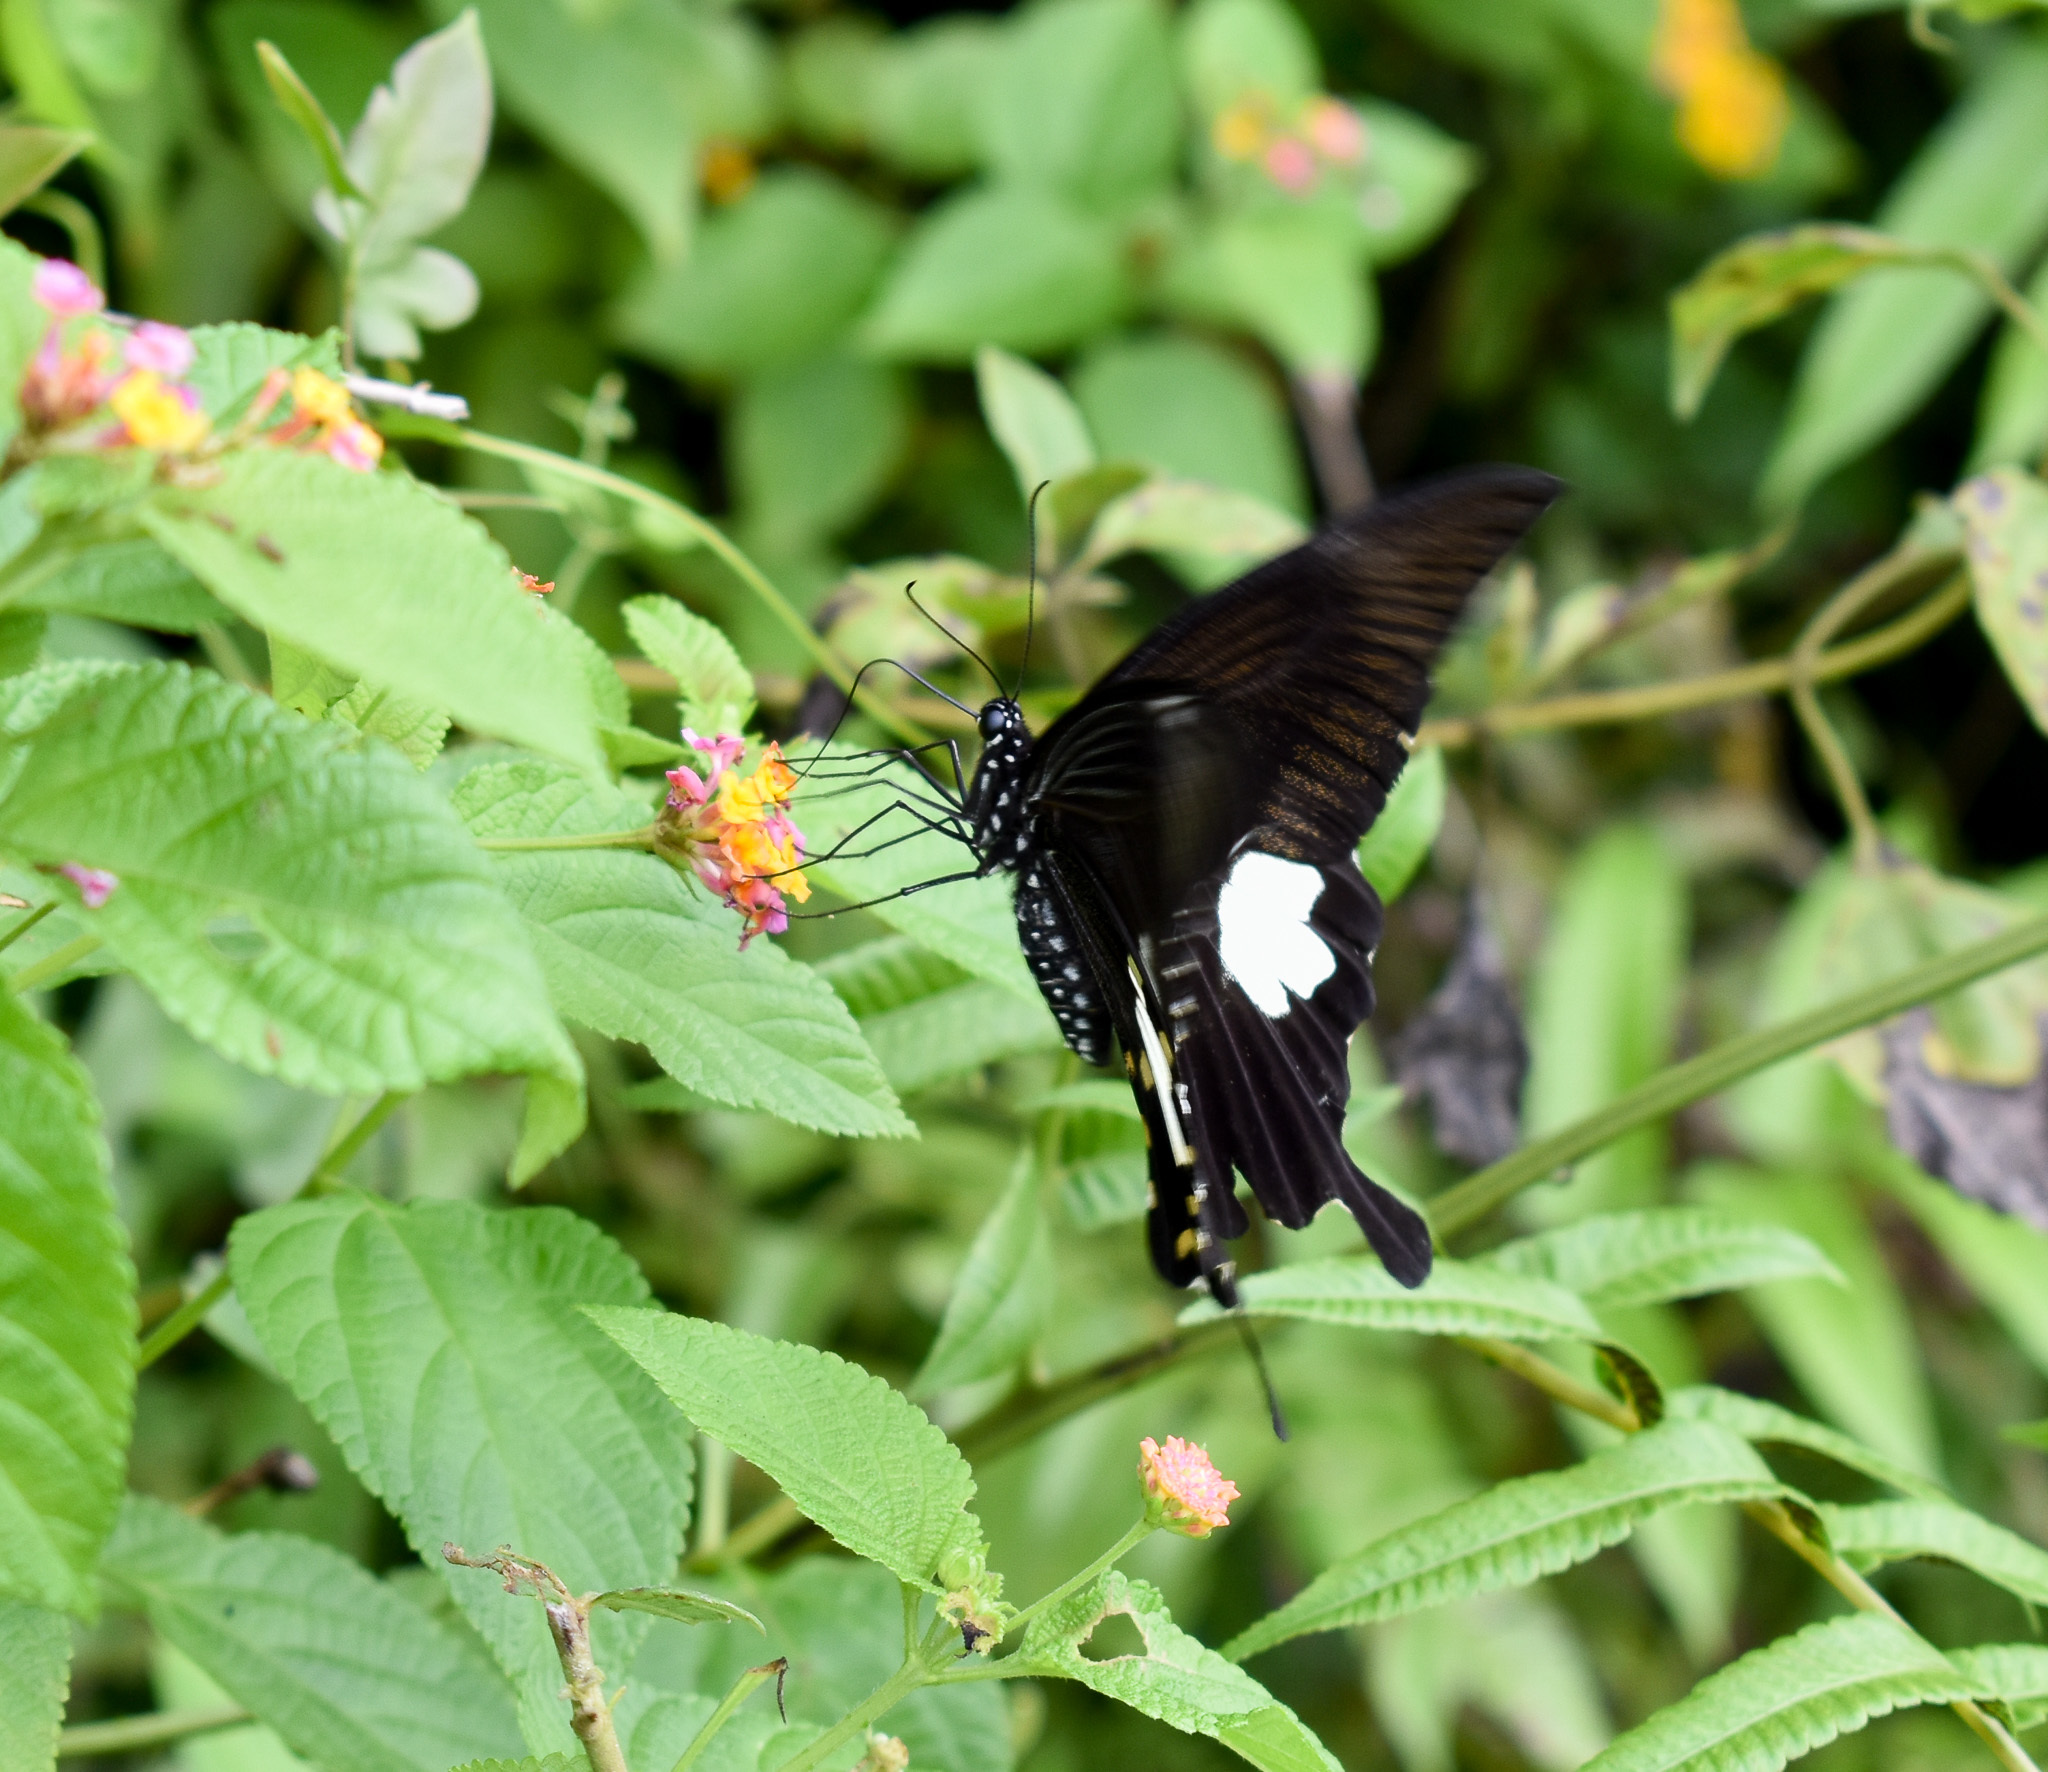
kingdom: Animalia
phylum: Arthropoda
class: Insecta
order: Lepidoptera
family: Papilionidae
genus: Papilio
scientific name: Papilio polytes
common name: Common mormon
